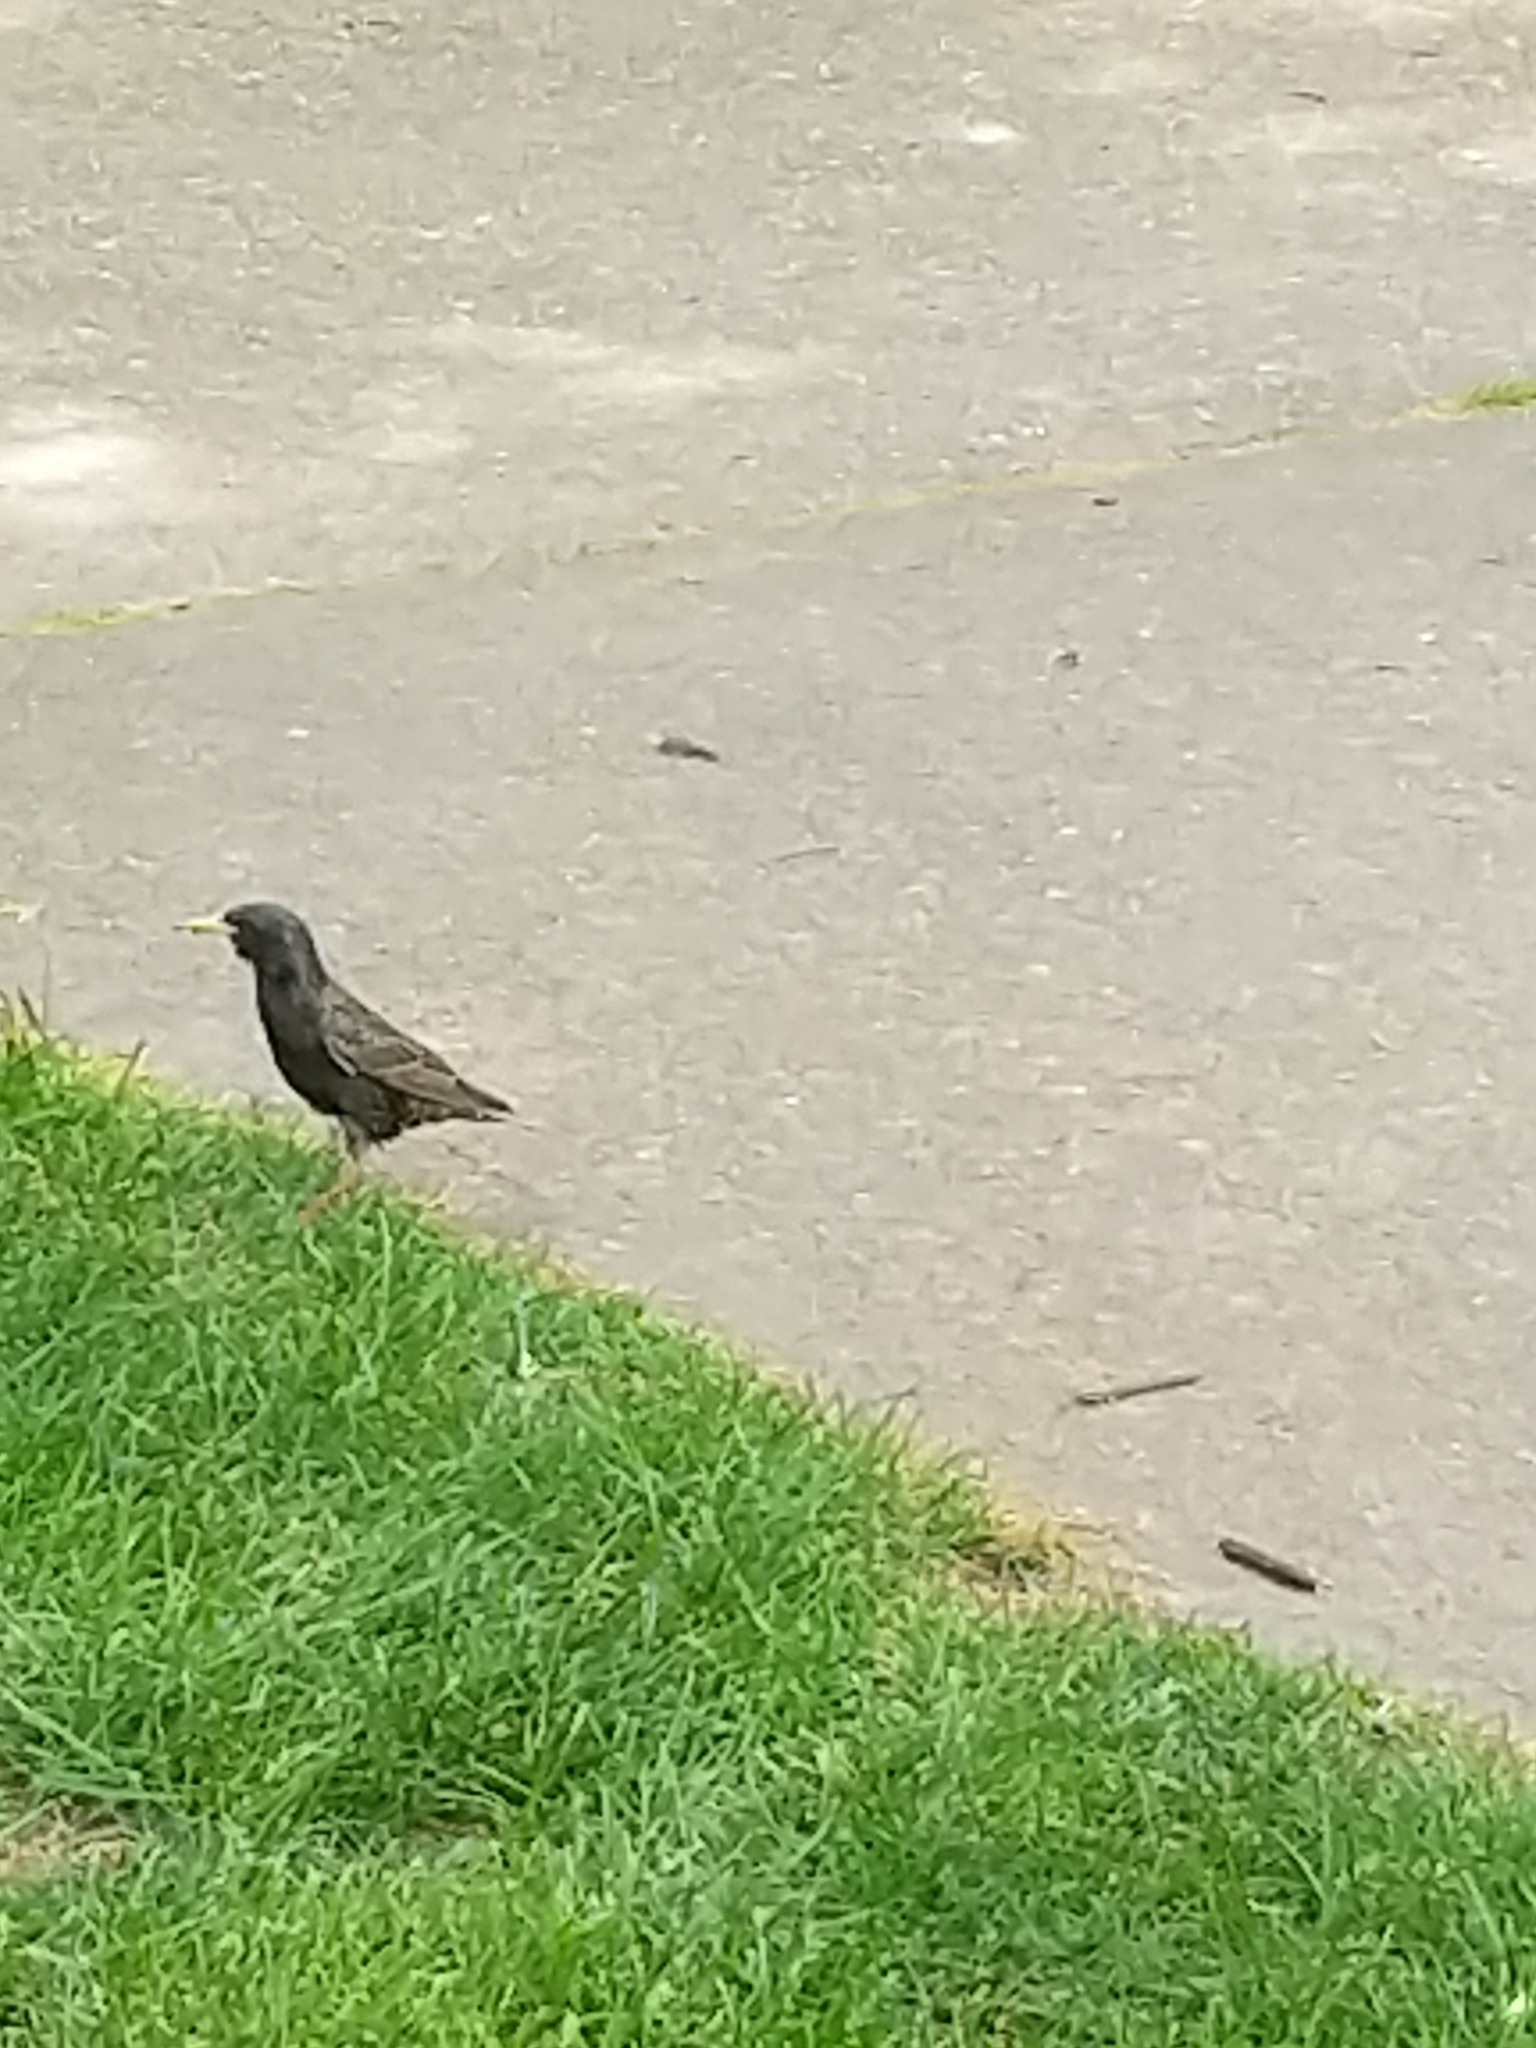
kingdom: Animalia
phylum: Chordata
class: Aves
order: Passeriformes
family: Sturnidae
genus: Sturnus
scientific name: Sturnus vulgaris
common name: Common starling
